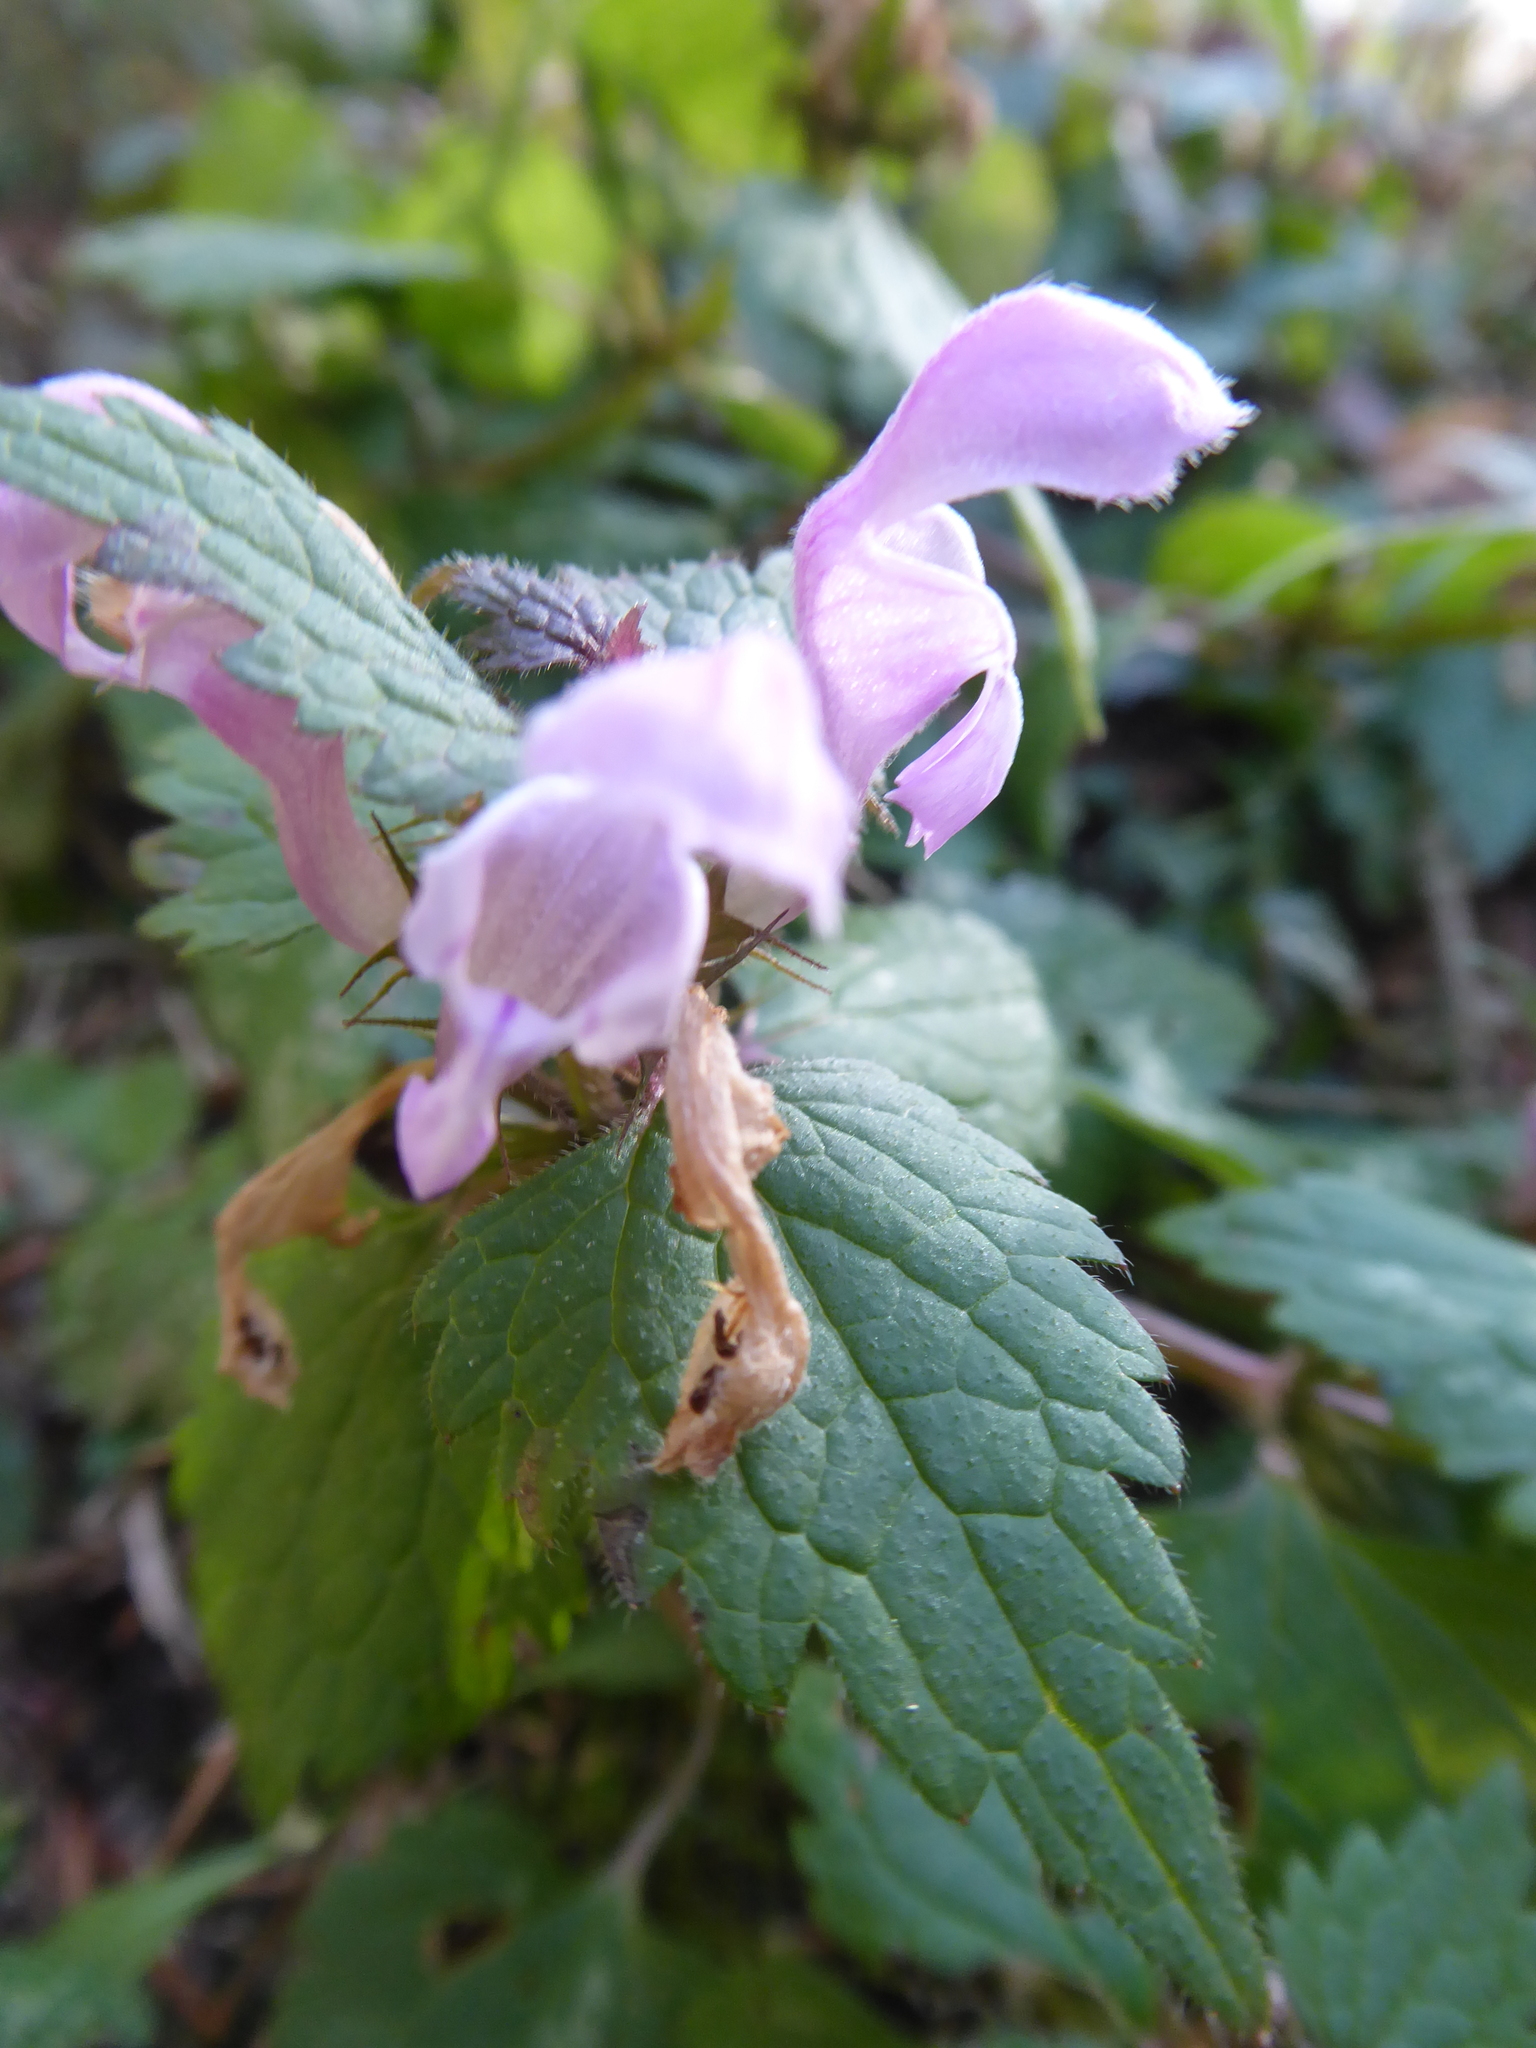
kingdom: Plantae
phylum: Tracheophyta
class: Magnoliopsida
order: Lamiales
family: Lamiaceae
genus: Lamium
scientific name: Lamium maculatum
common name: Spotted dead-nettle
